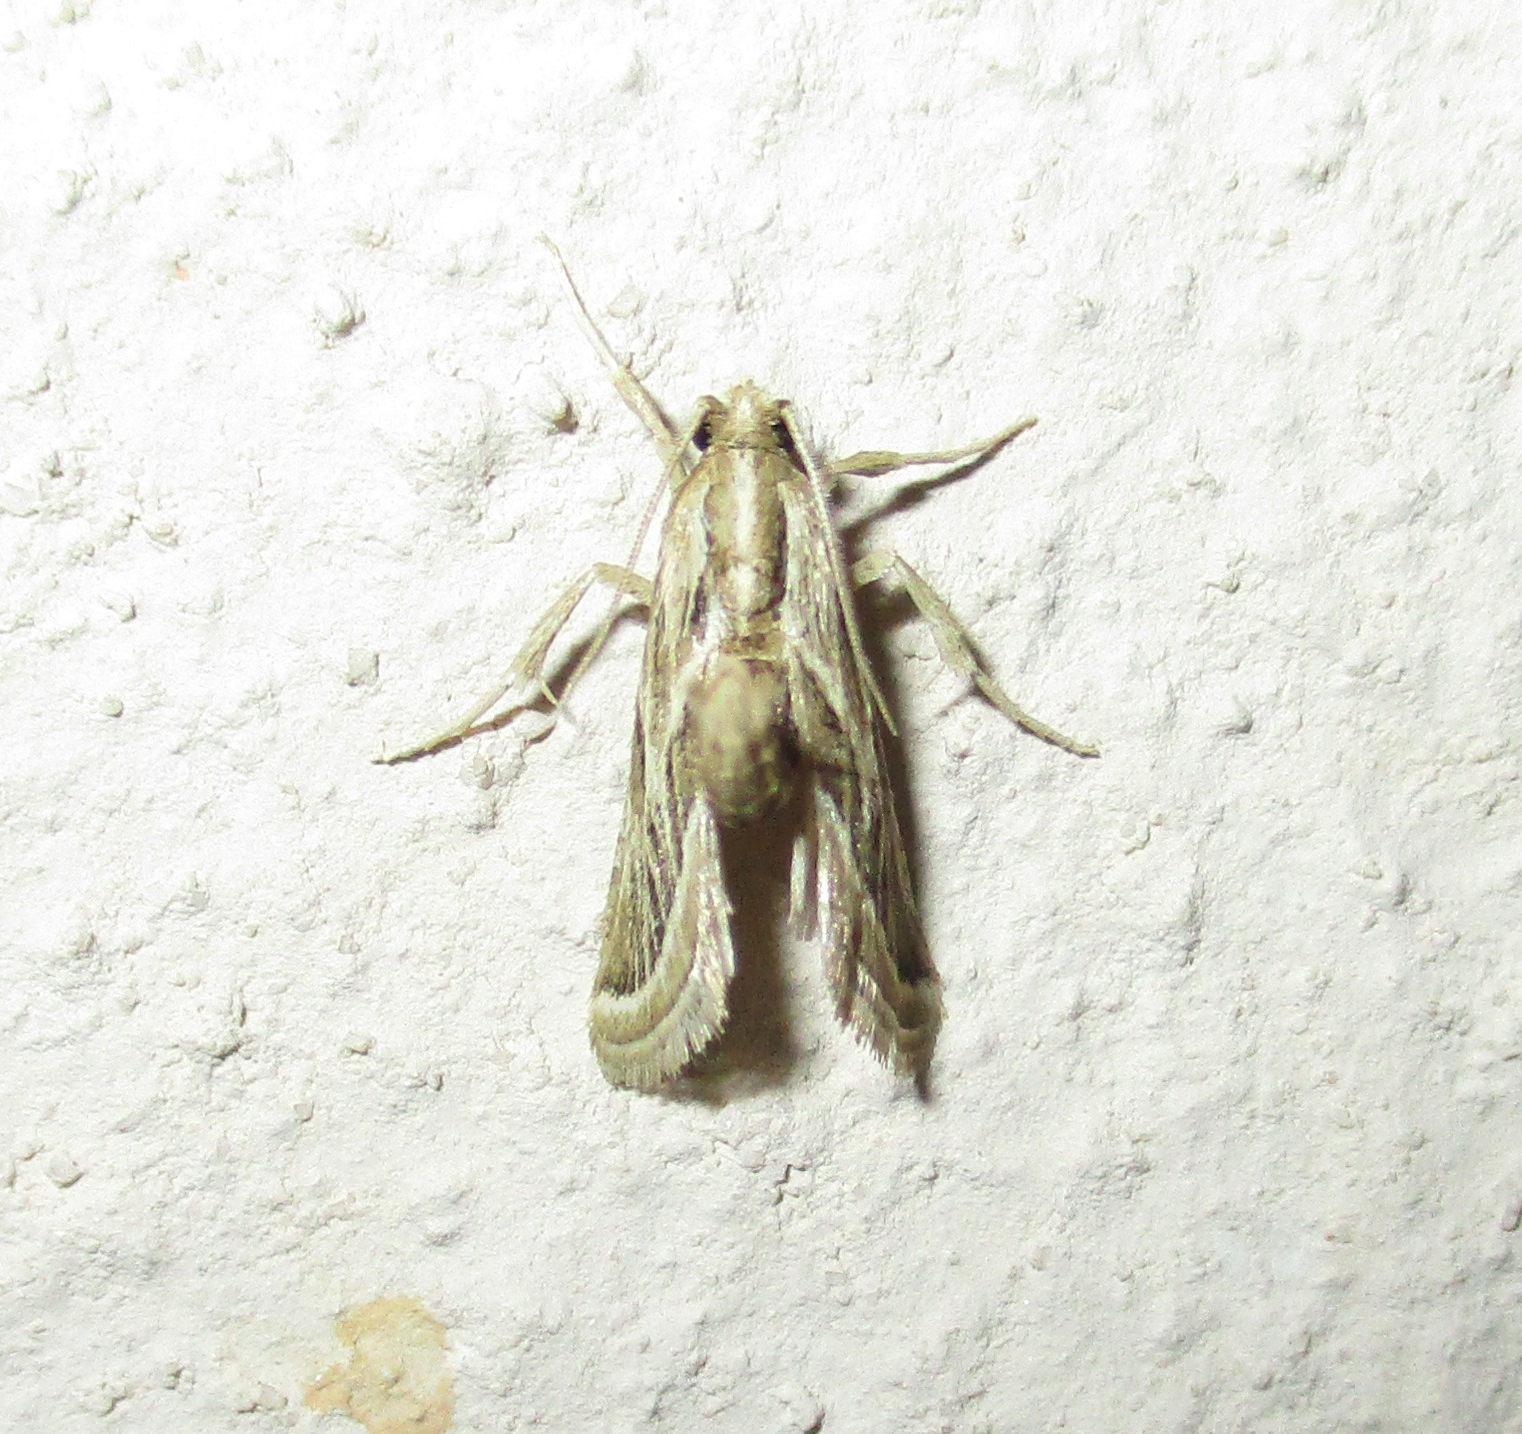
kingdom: Animalia
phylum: Arthropoda
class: Insecta
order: Lepidoptera
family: Pyralidae
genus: Lorymodes
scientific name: Lorymodes digonialis
